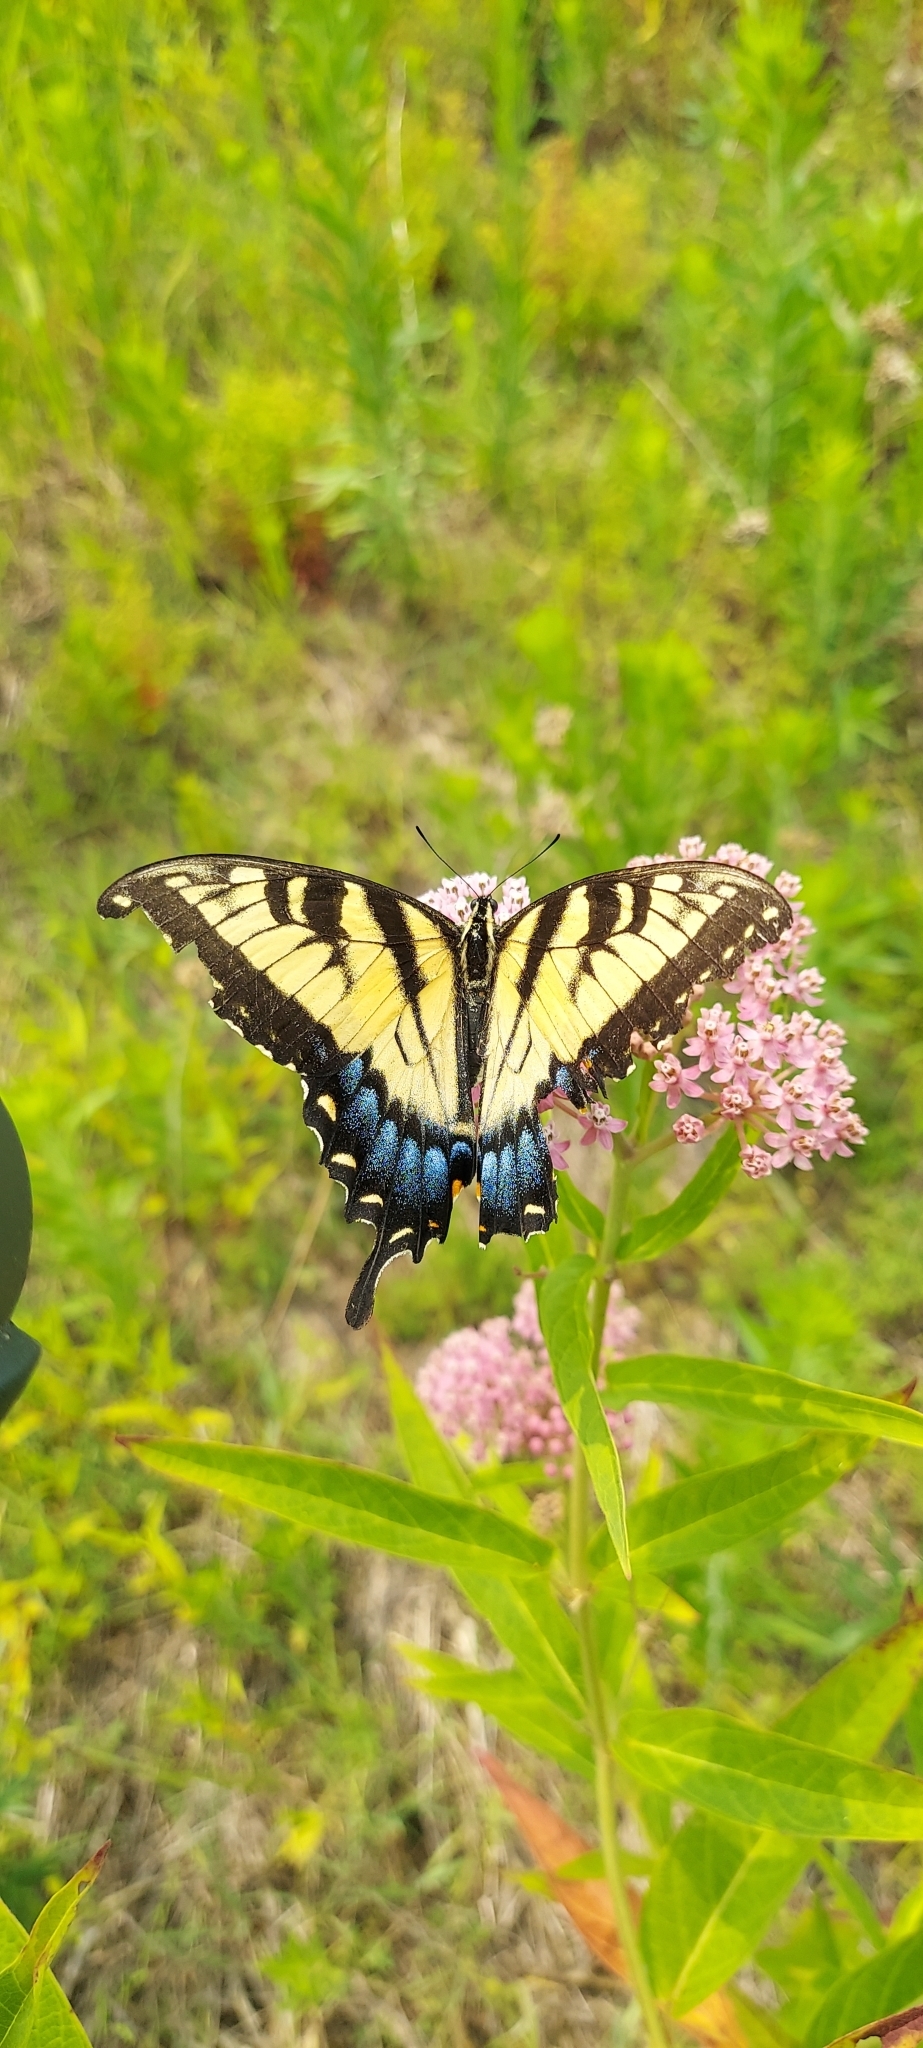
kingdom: Animalia
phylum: Arthropoda
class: Insecta
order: Lepidoptera
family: Papilionidae
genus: Papilio
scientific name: Papilio glaucus
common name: Tiger swallowtail
